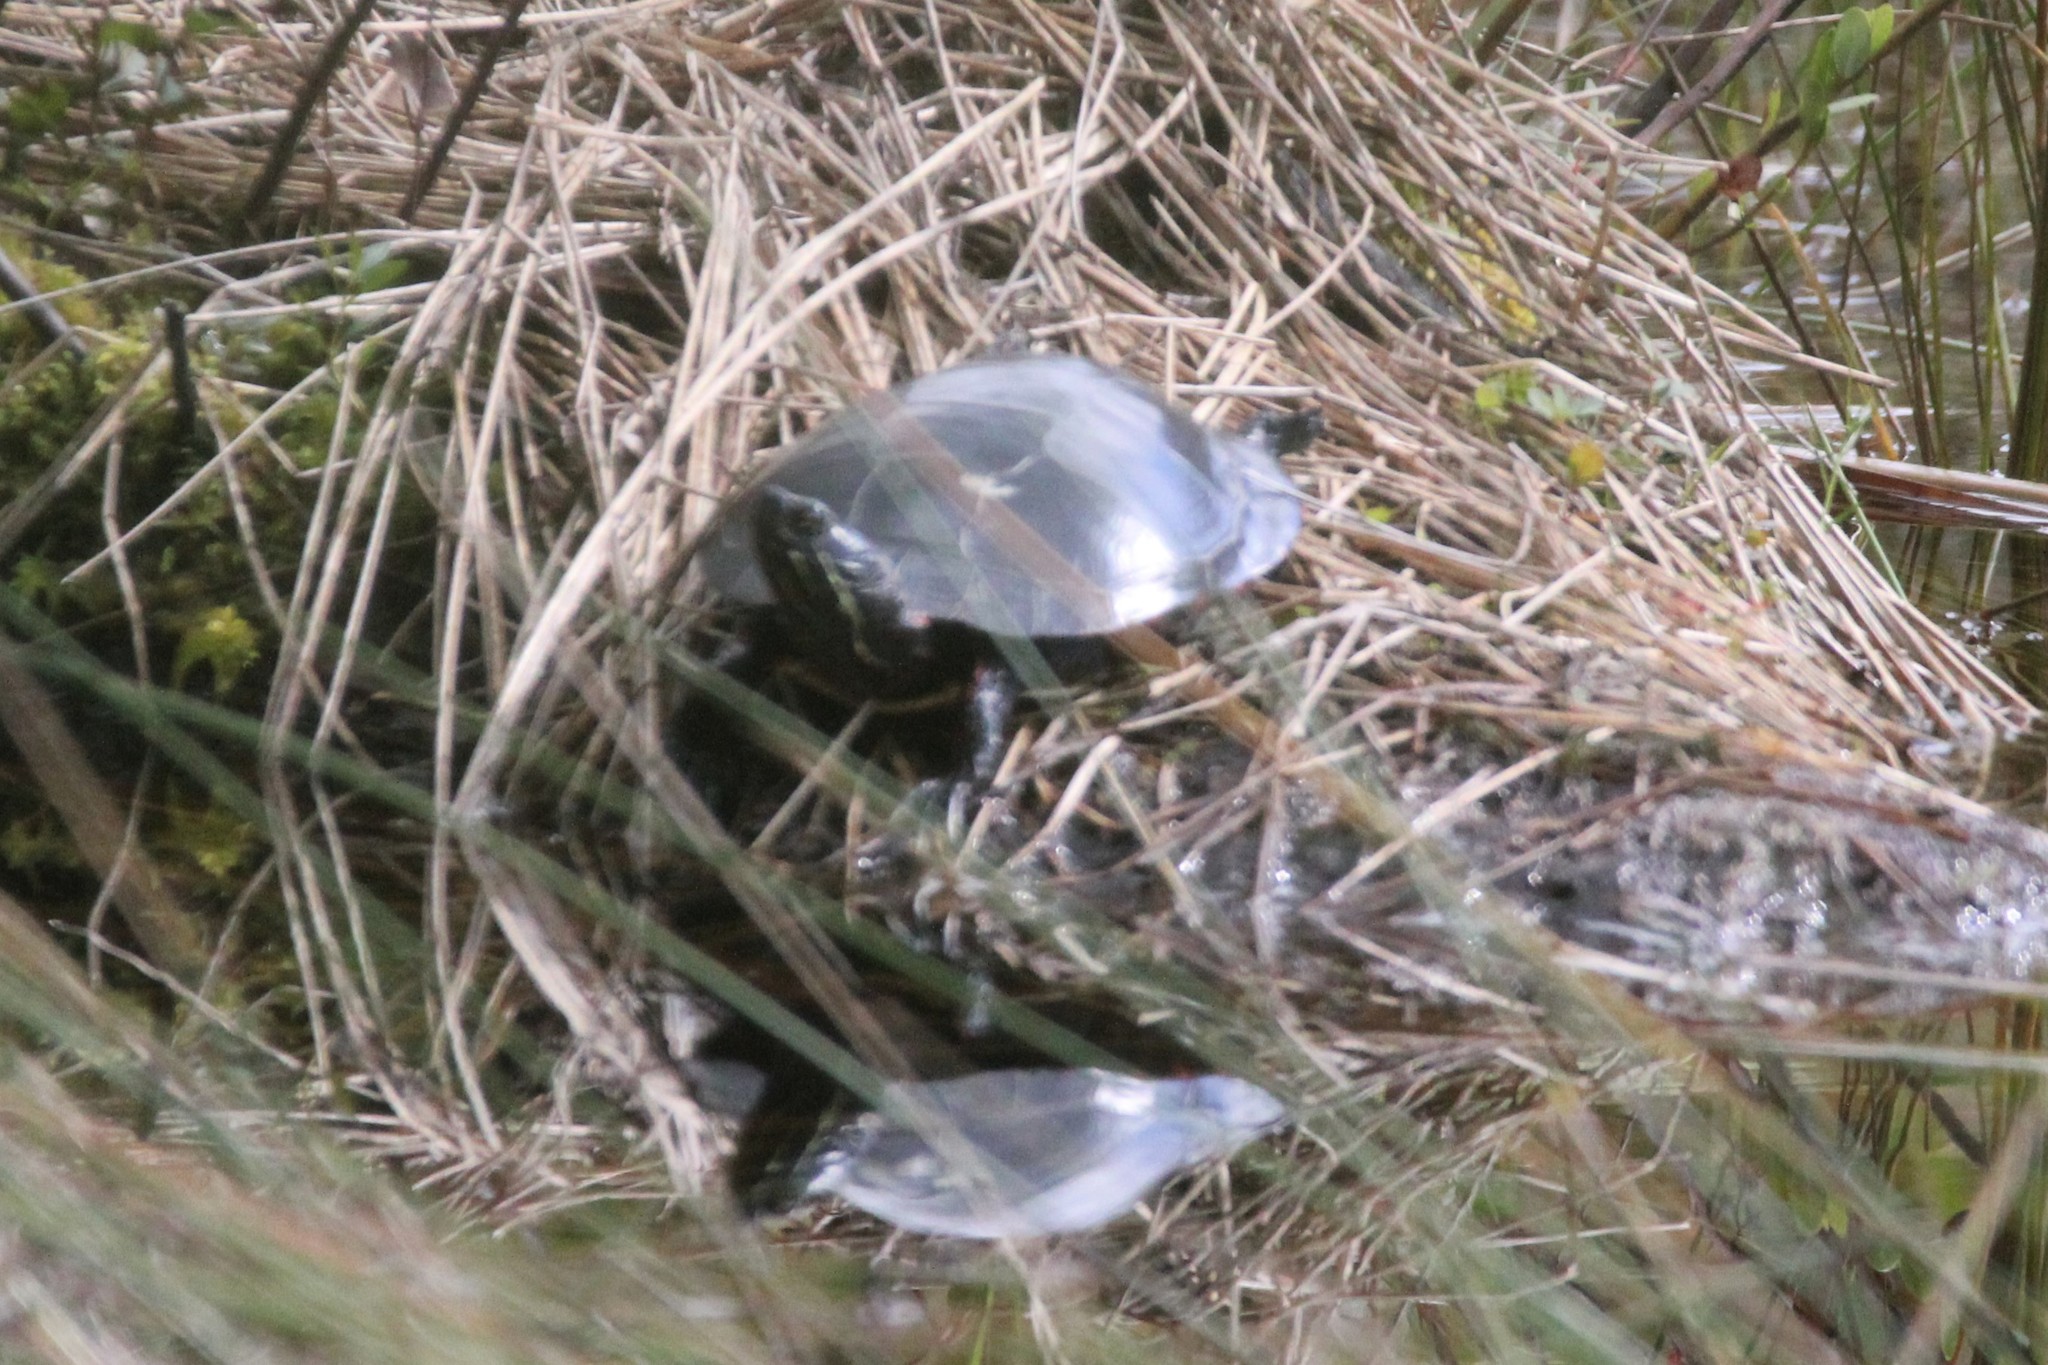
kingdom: Animalia
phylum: Chordata
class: Testudines
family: Emydidae
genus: Chrysemys
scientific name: Chrysemys picta
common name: Painted turtle
